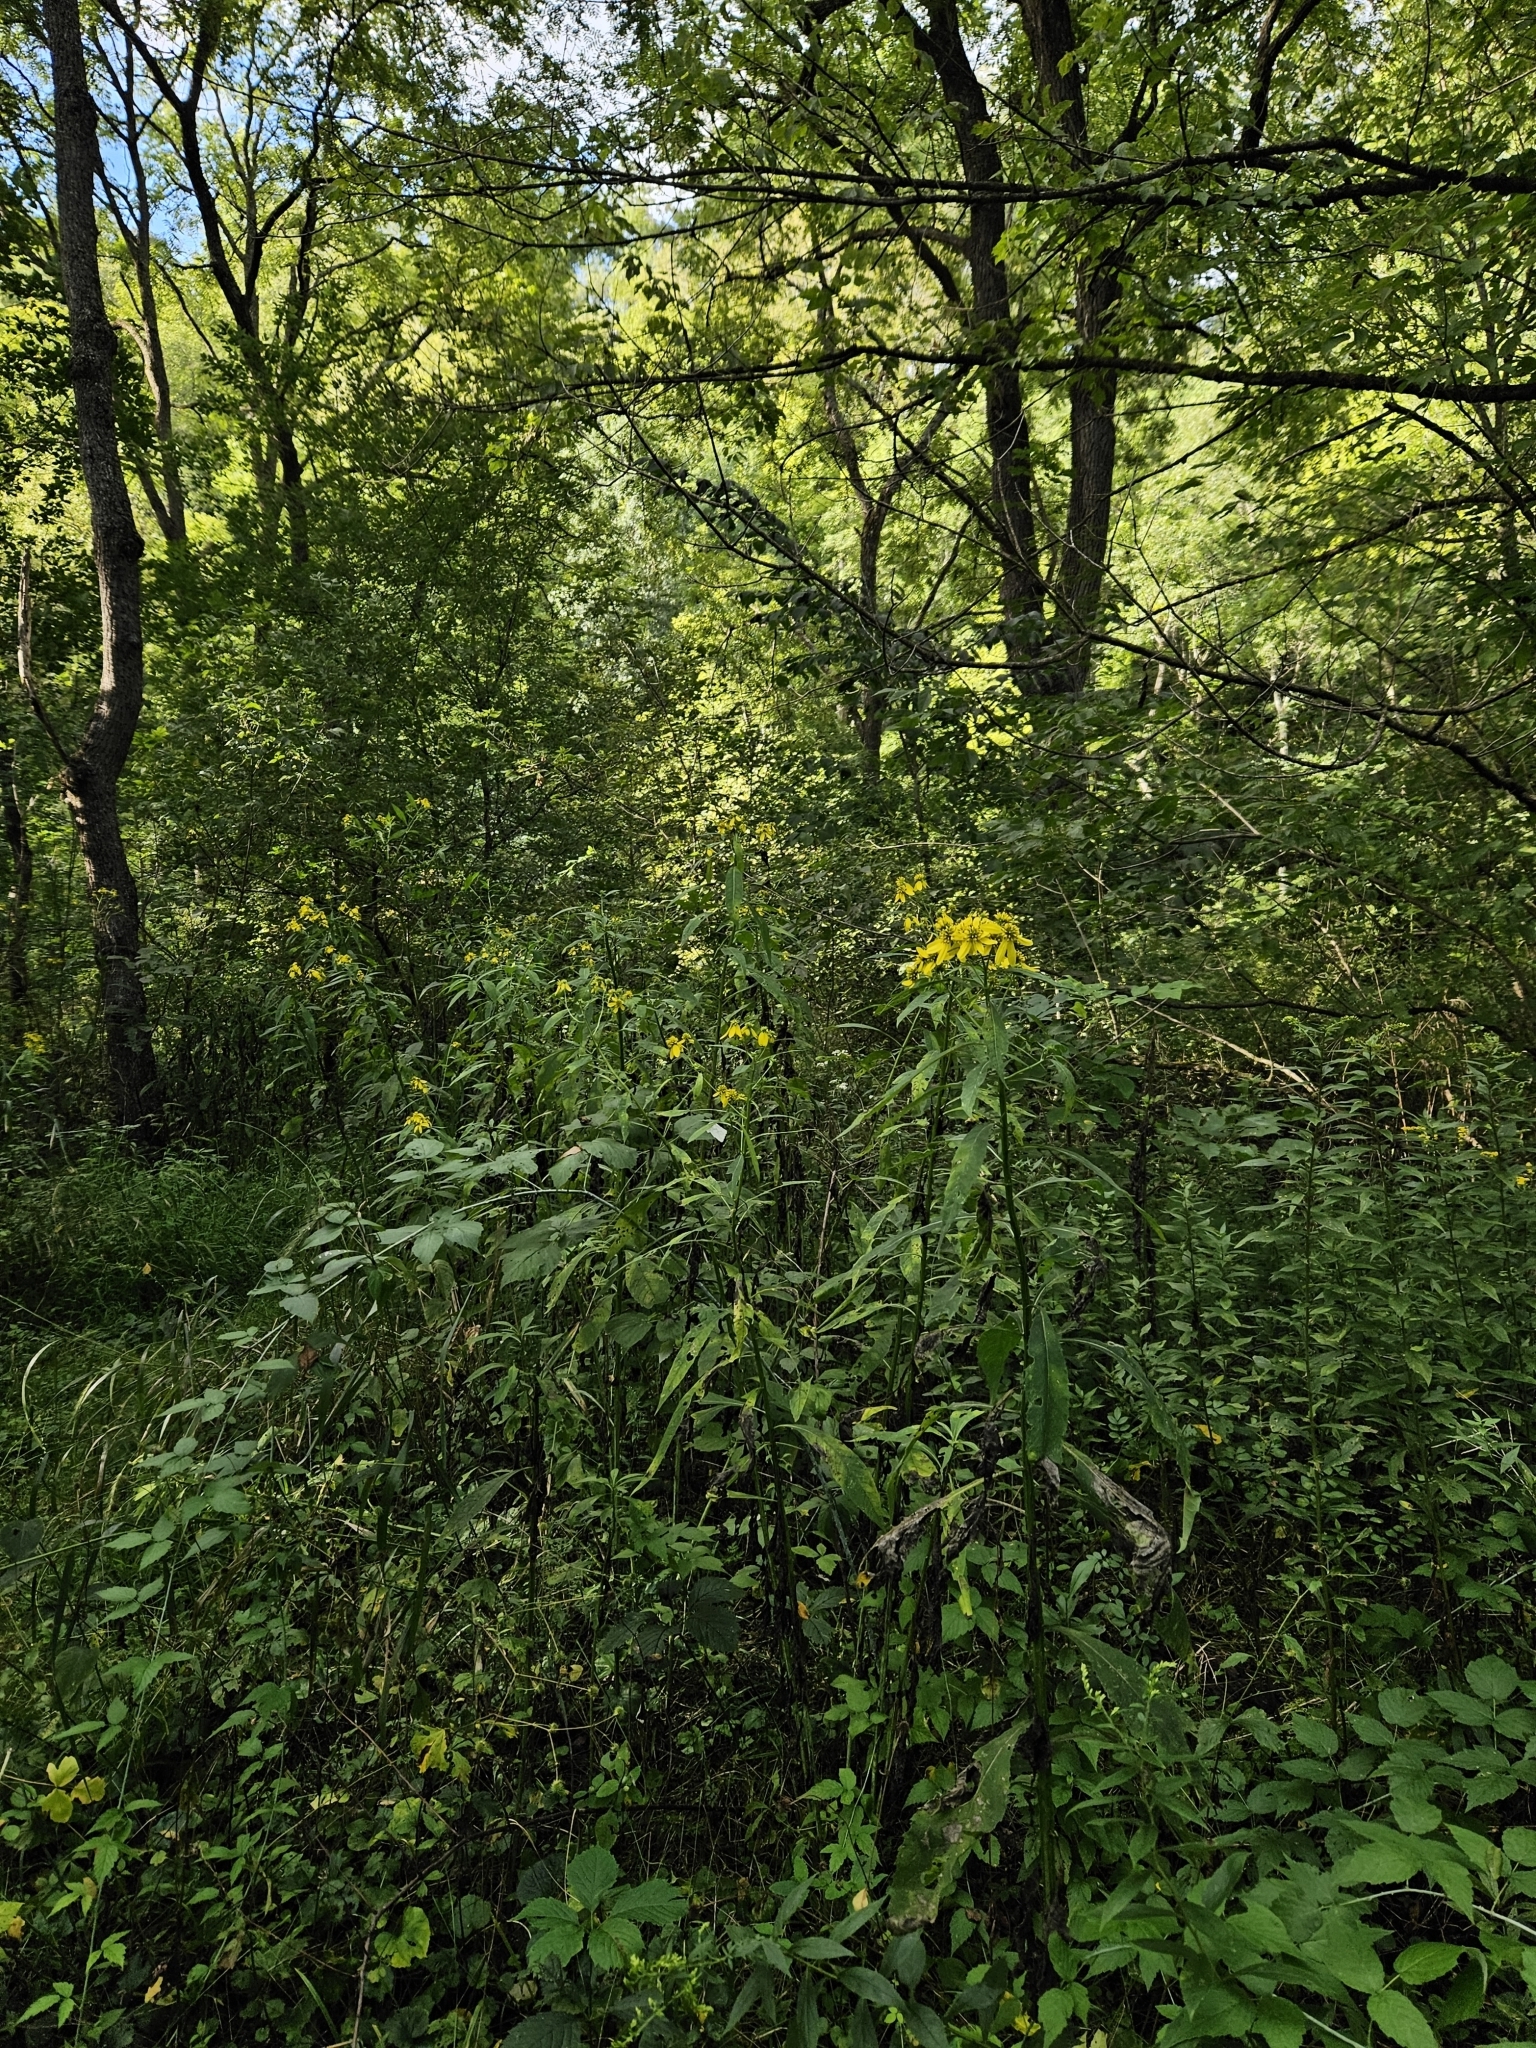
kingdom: Plantae
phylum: Tracheophyta
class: Magnoliopsida
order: Asterales
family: Asteraceae
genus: Verbesina
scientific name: Verbesina alternifolia
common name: Wingstem
